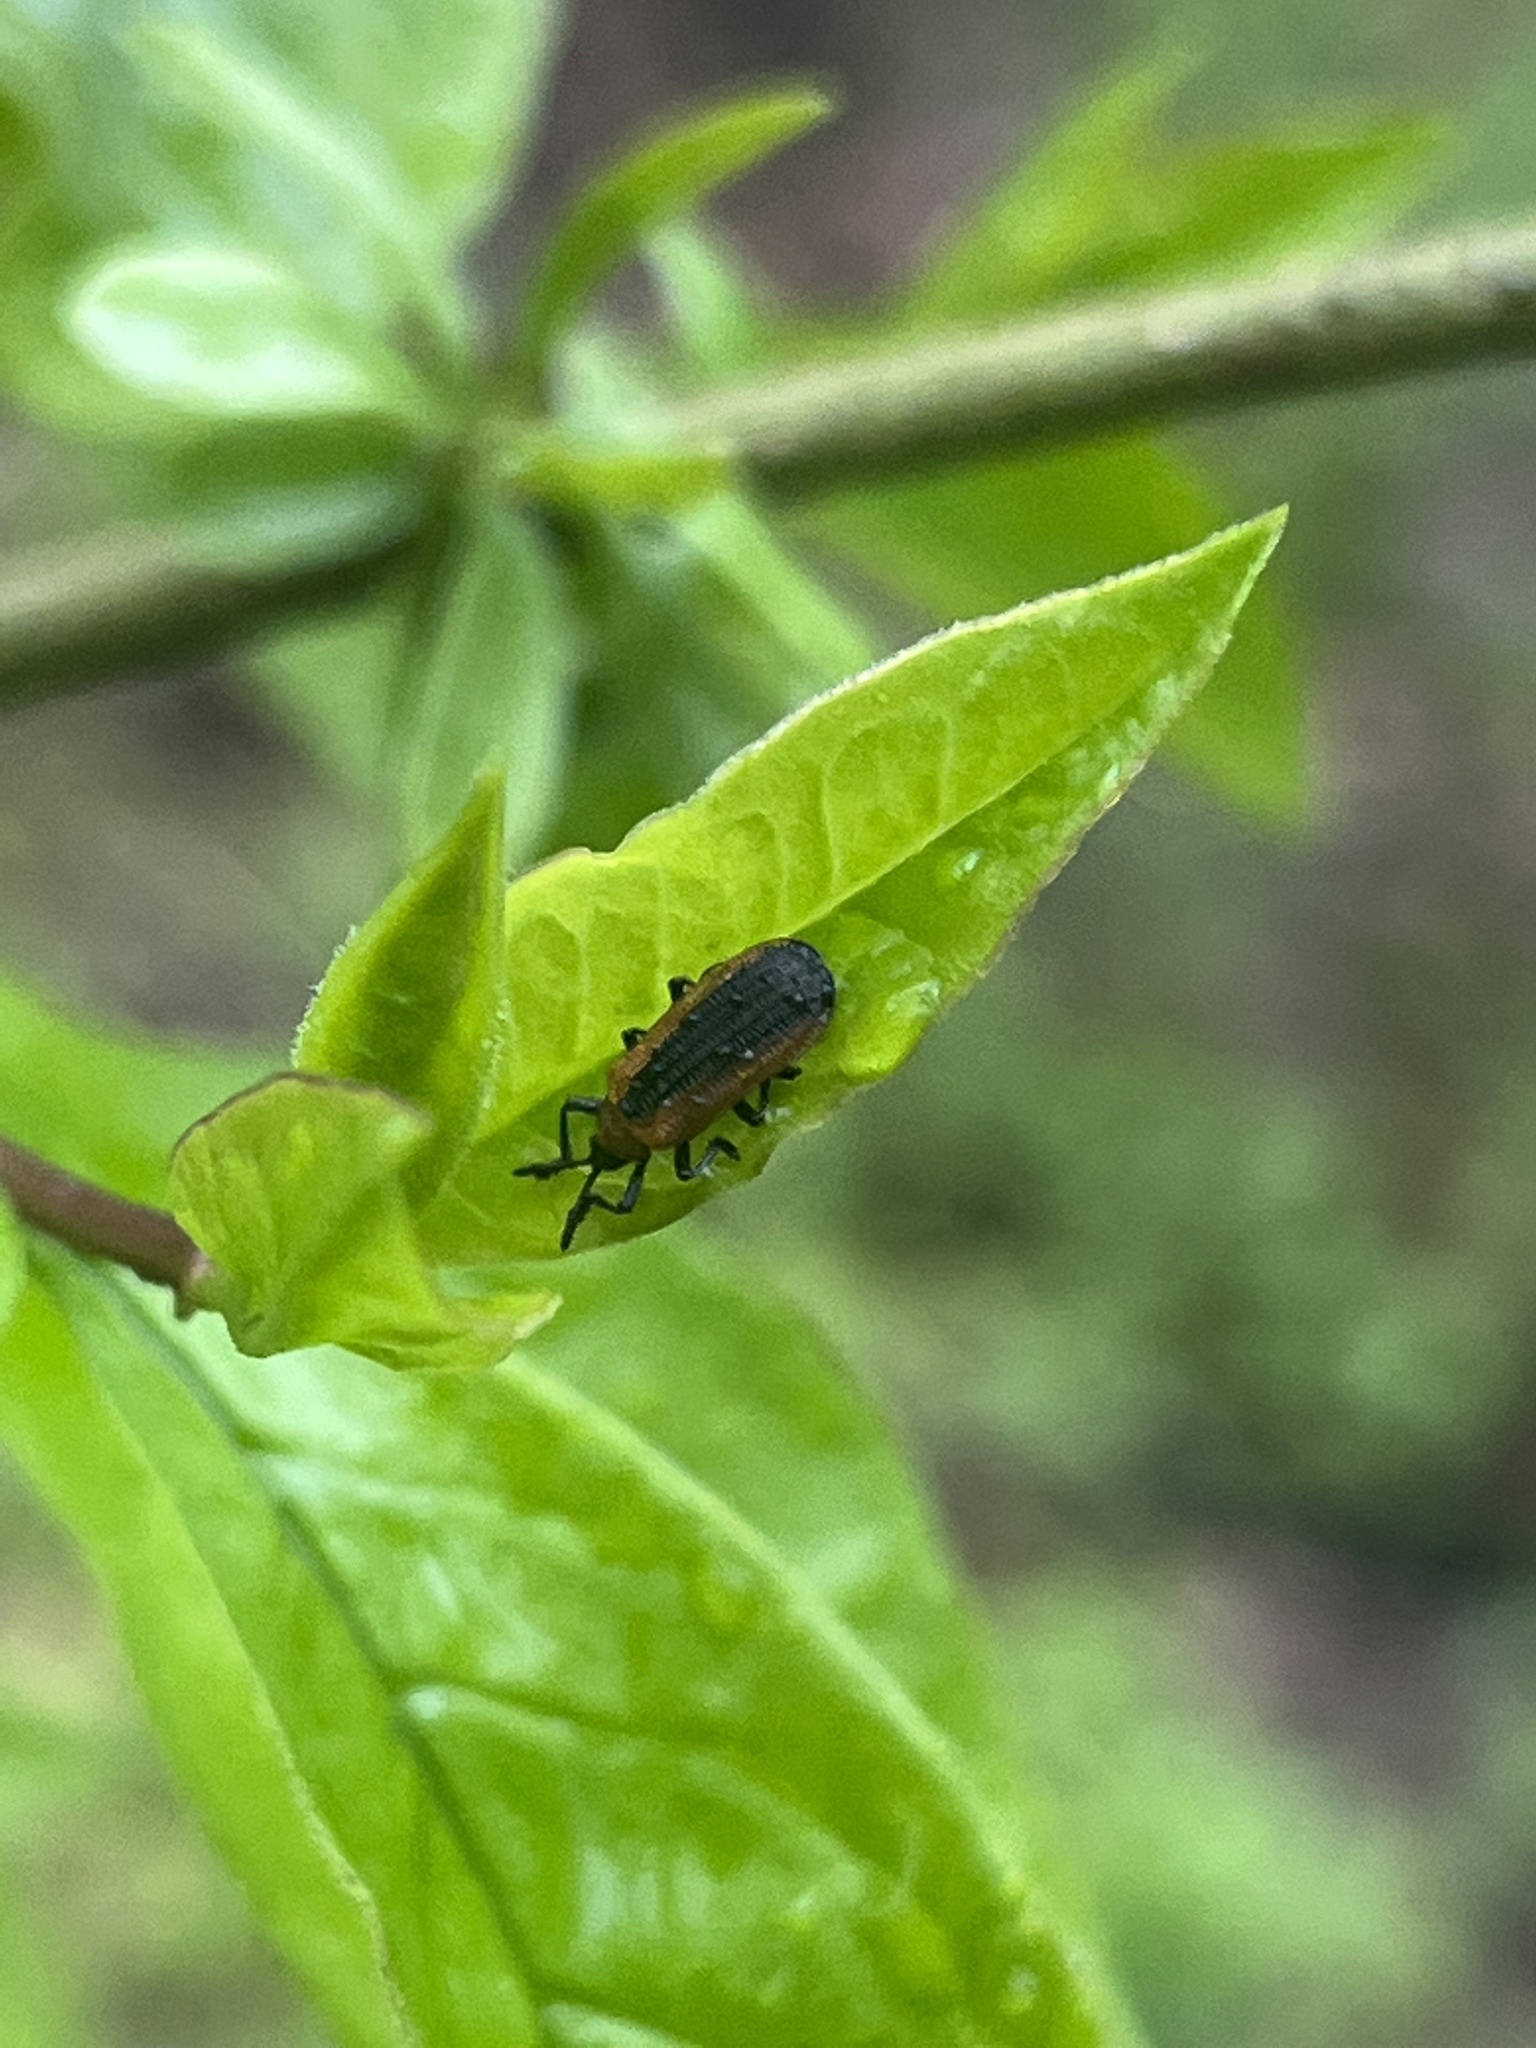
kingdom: Animalia
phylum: Arthropoda
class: Insecta
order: Coleoptera
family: Chrysomelidae
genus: Odontota
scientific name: Odontota dorsalis
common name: Locust leaf-miner beetle
